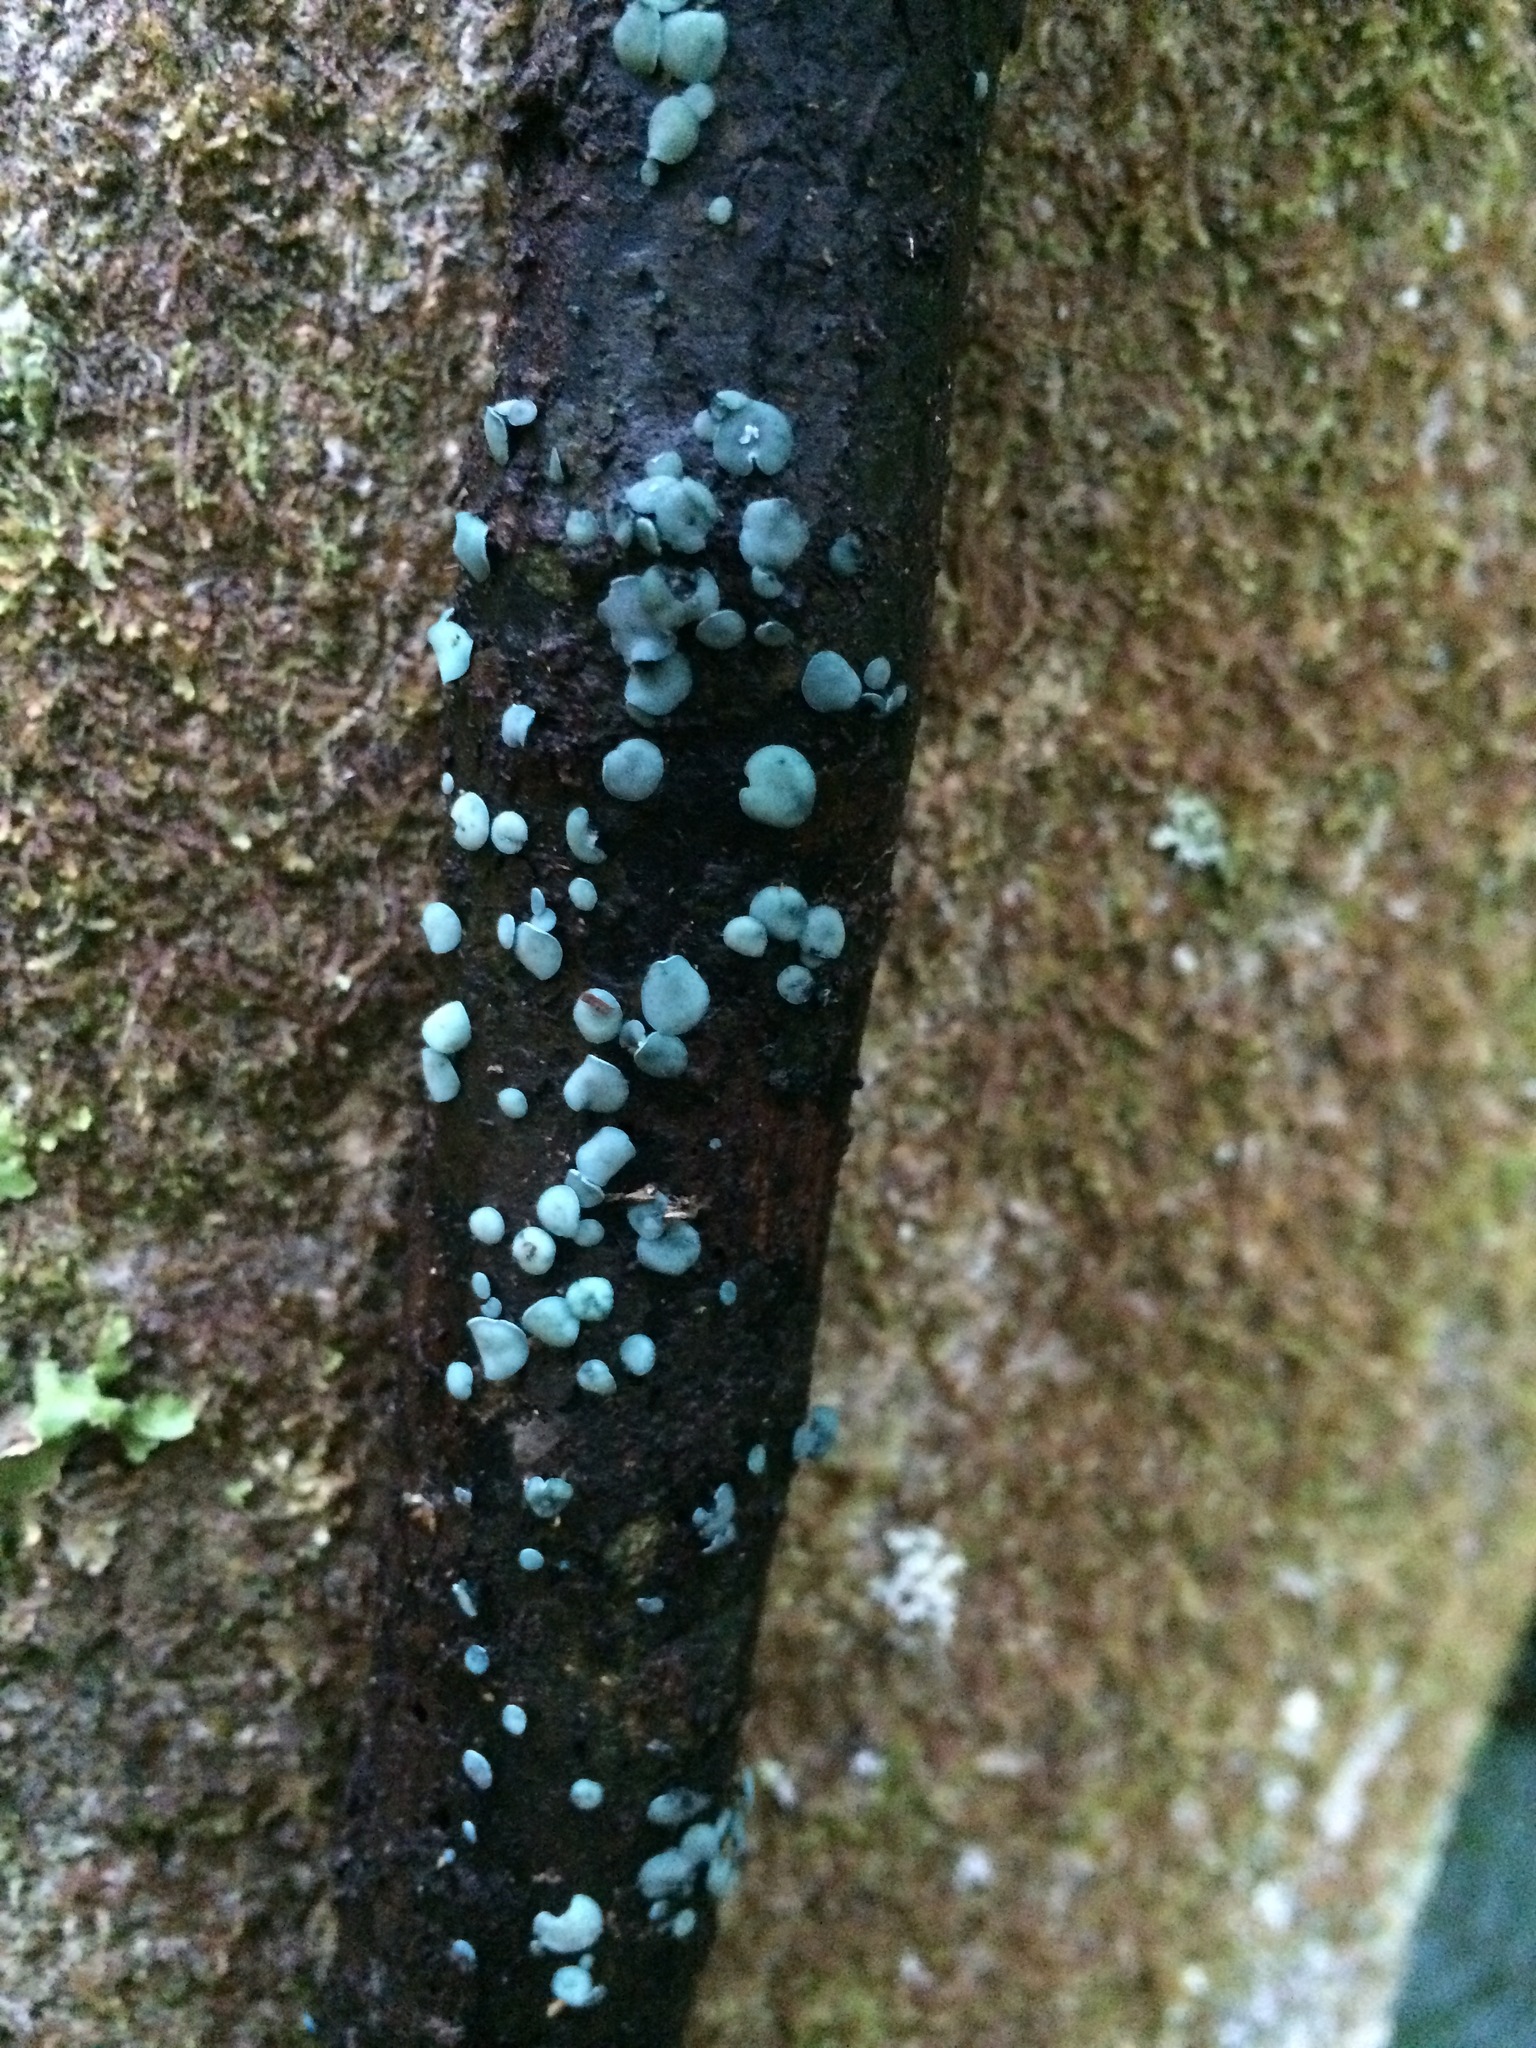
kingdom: Fungi
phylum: Ascomycota
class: Leotiomycetes
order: Helotiales
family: Chlorociboriaceae
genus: Chlorociboria
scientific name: Chlorociboria
